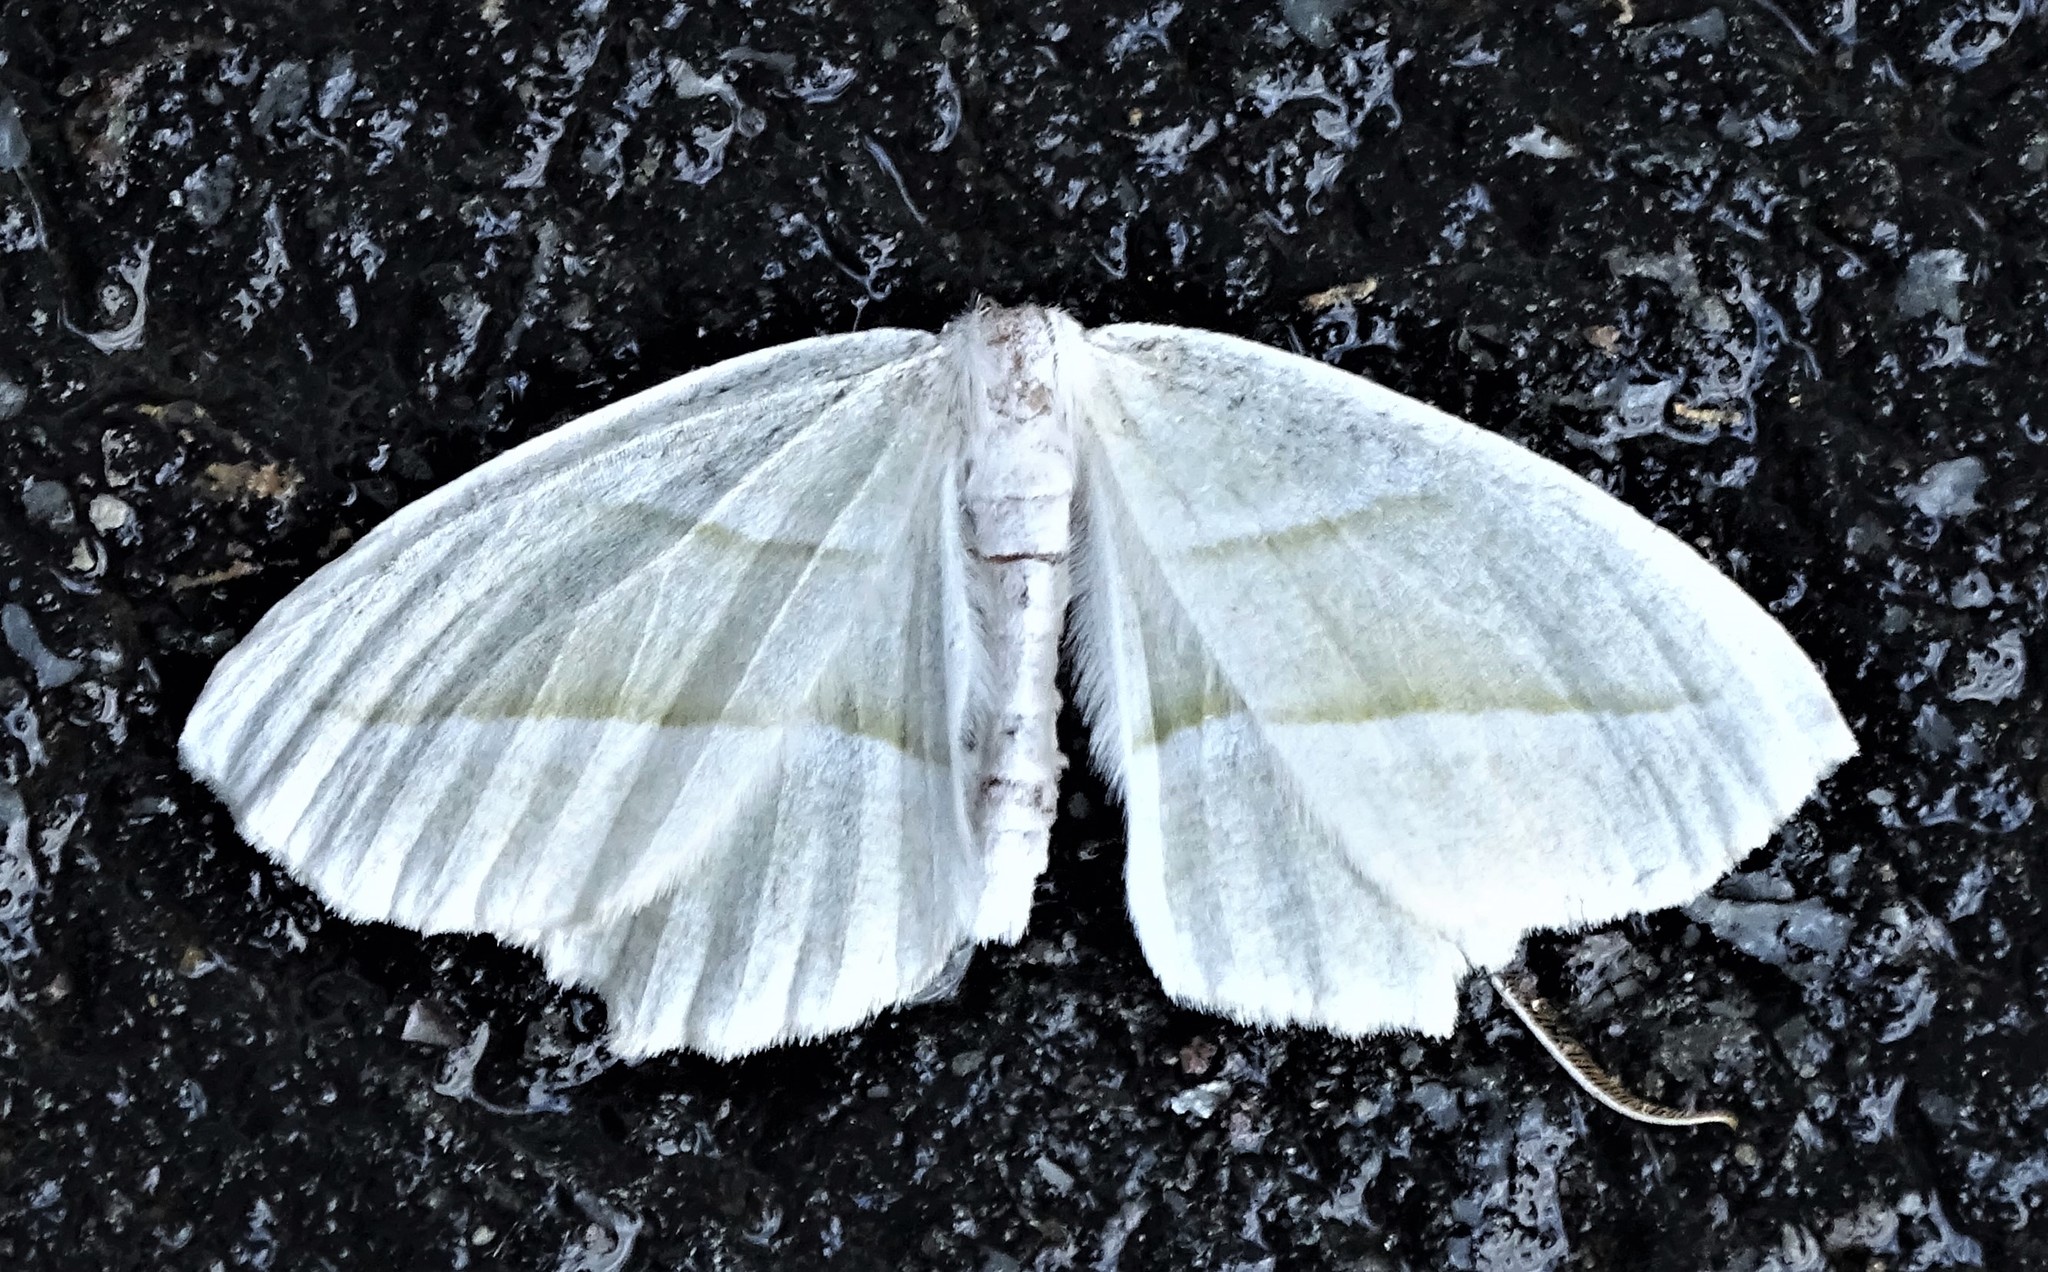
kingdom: Animalia
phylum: Arthropoda
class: Insecta
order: Lepidoptera
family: Geometridae
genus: Campaea
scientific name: Campaea perlata
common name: Fringed looper
